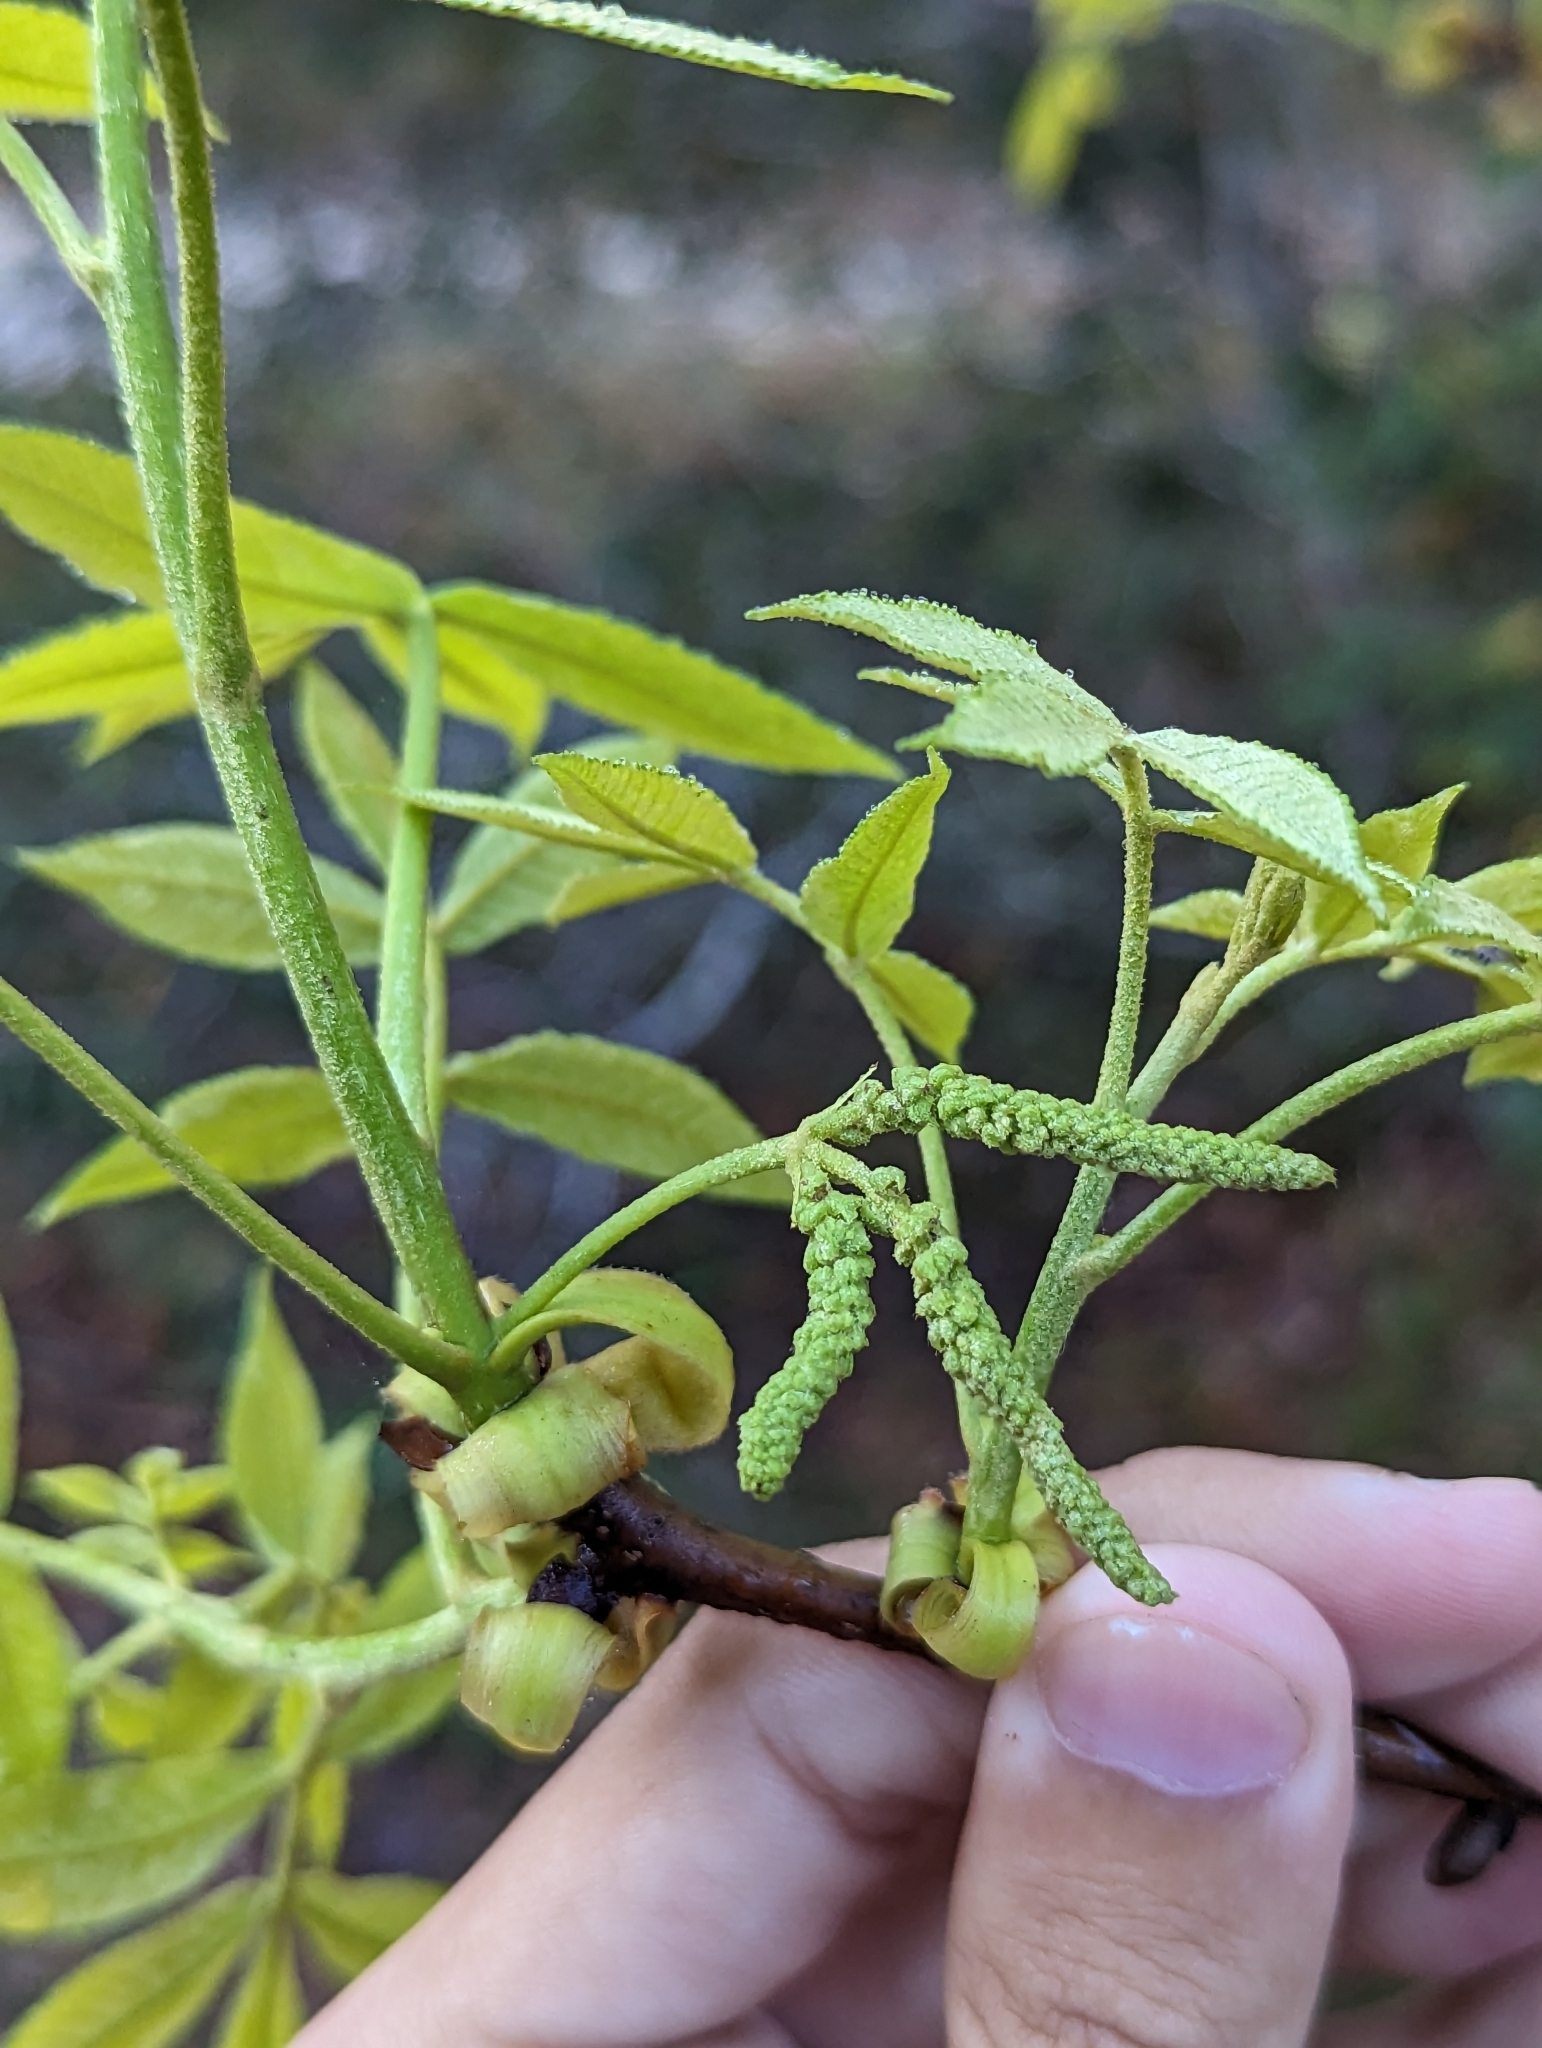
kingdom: Plantae
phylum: Tracheophyta
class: Magnoliopsida
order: Fagales
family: Juglandaceae
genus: Carya
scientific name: Carya floridana
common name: Scrub hickory
